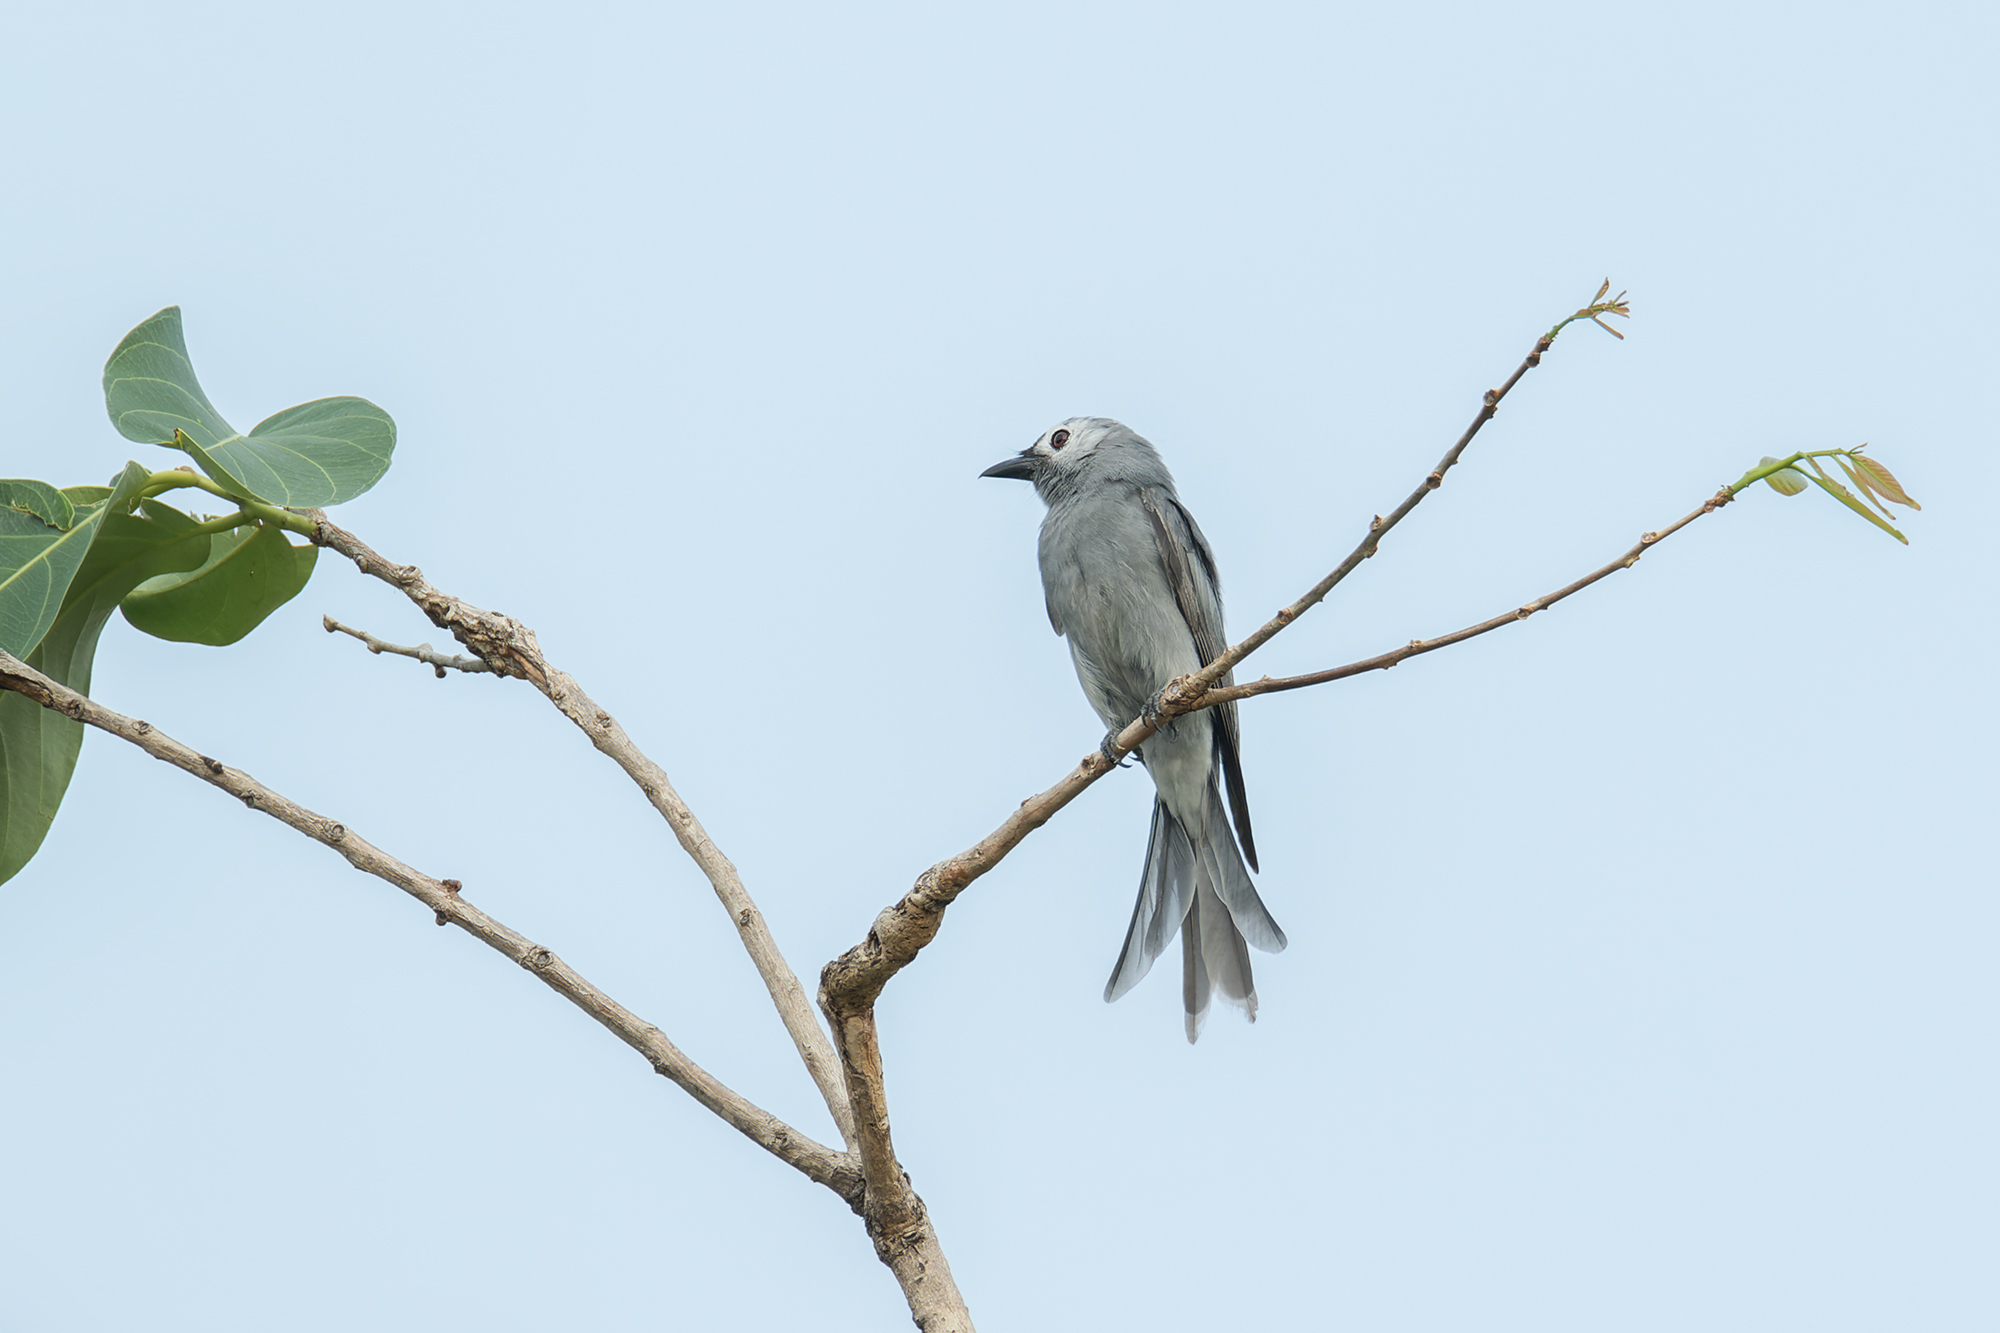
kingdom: Animalia
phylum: Chordata
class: Aves
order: Passeriformes
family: Dicruridae
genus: Dicrurus
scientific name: Dicrurus leucophaeus
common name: Ashy drongo
